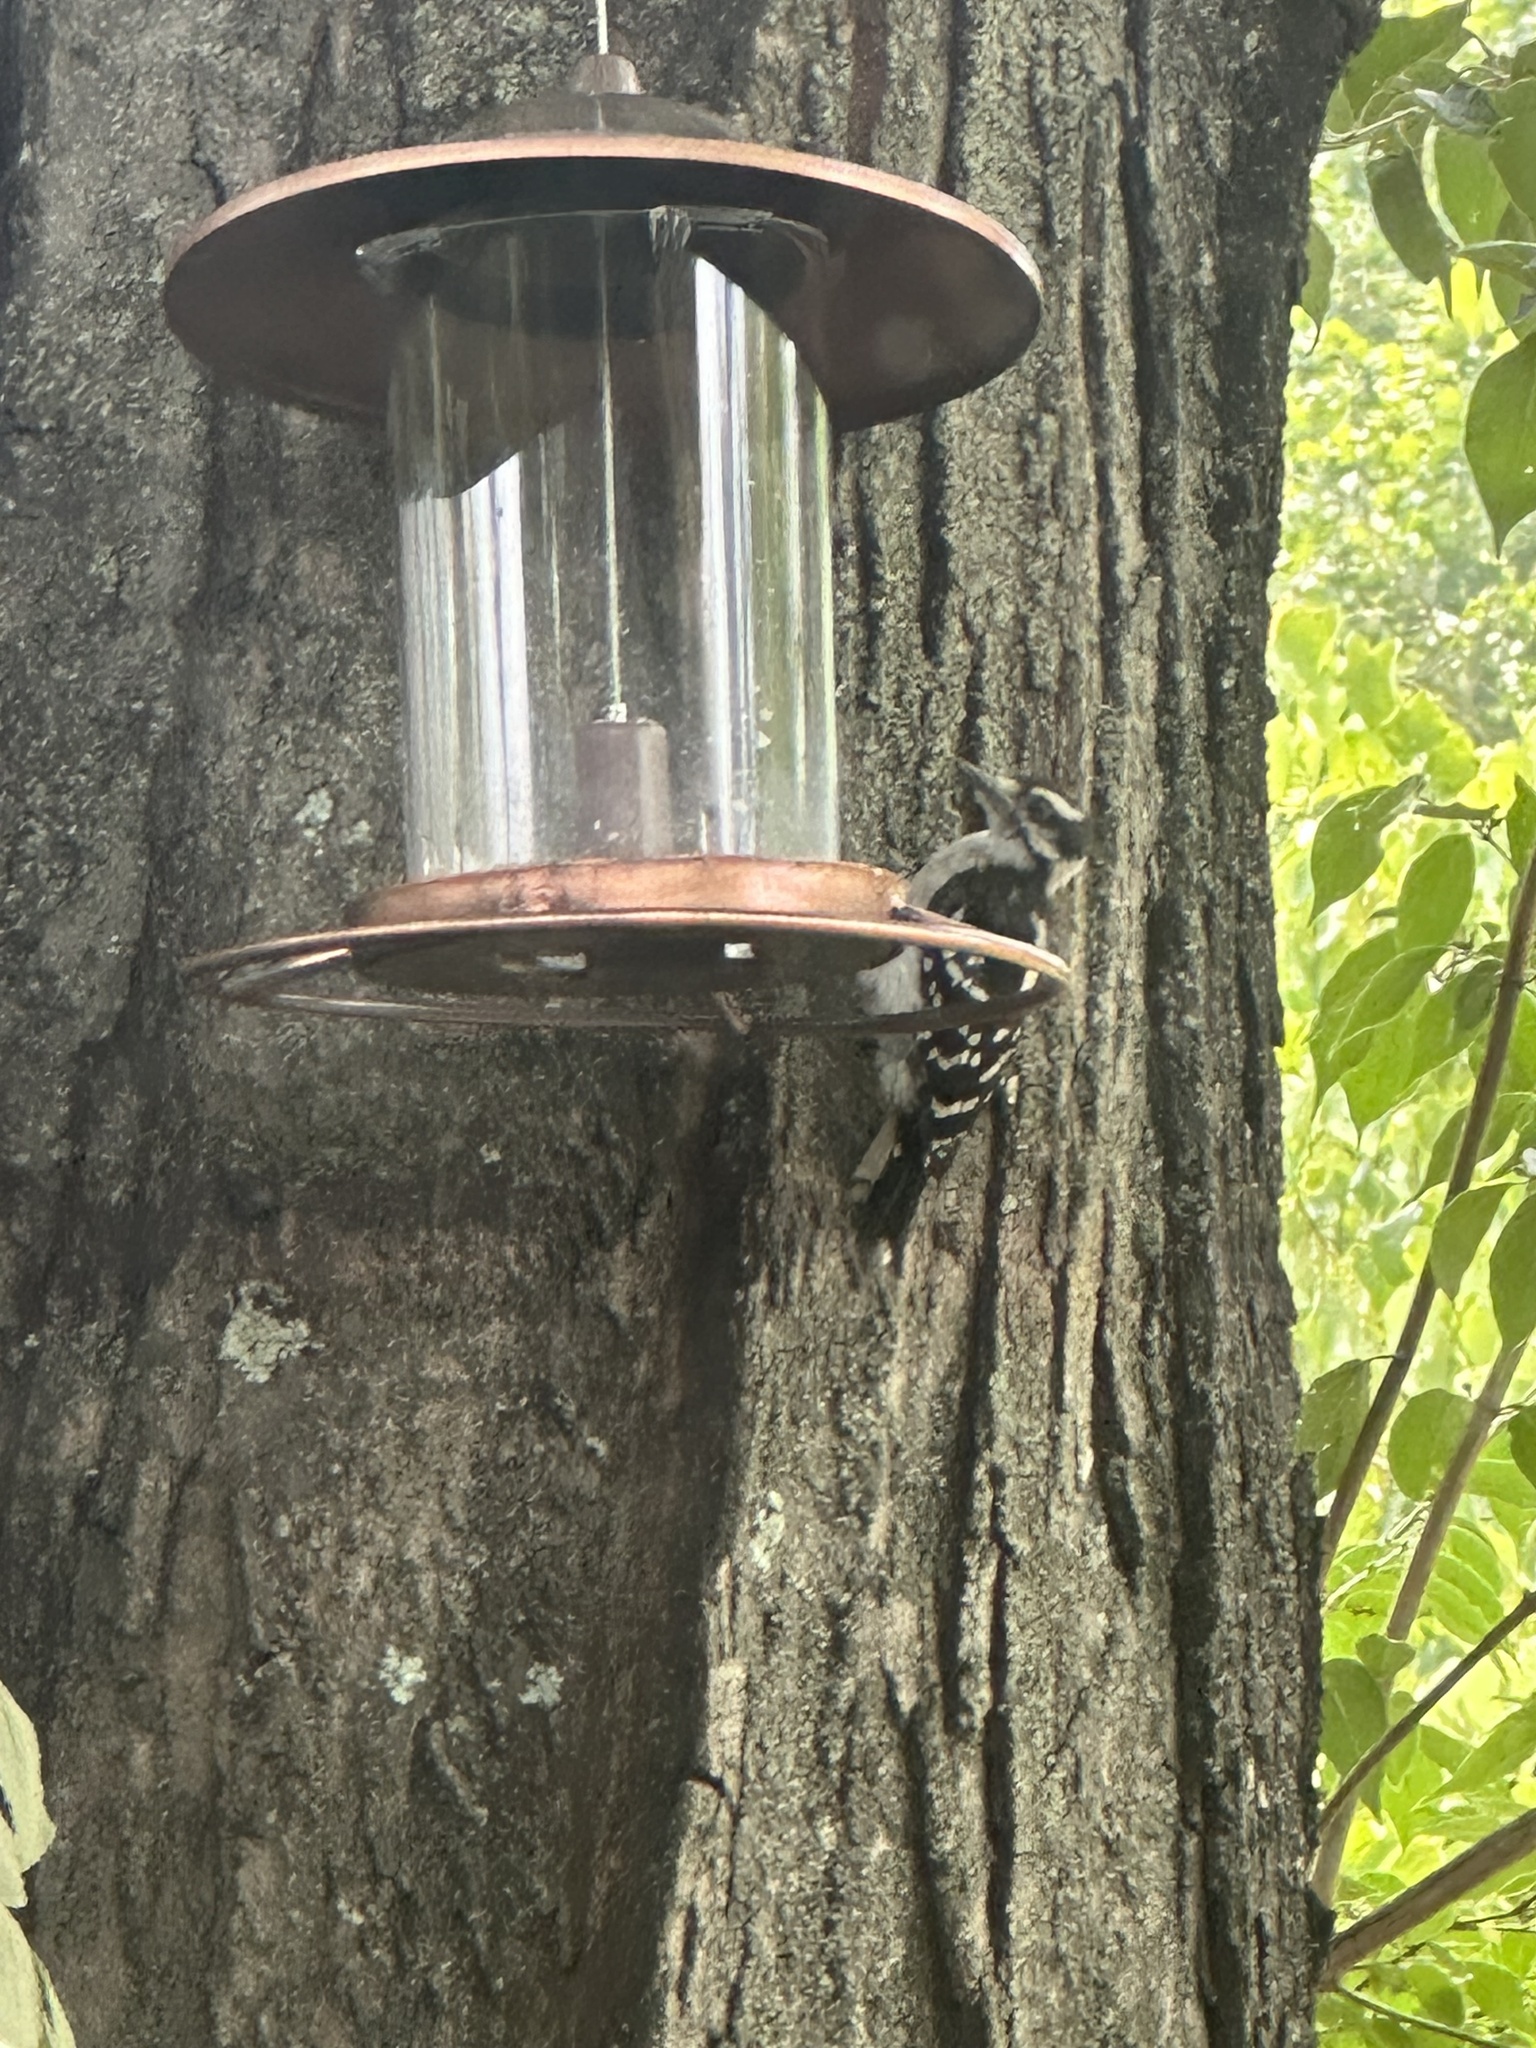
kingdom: Animalia
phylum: Chordata
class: Aves
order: Piciformes
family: Picidae
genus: Dryobates
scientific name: Dryobates pubescens
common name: Downy woodpecker
